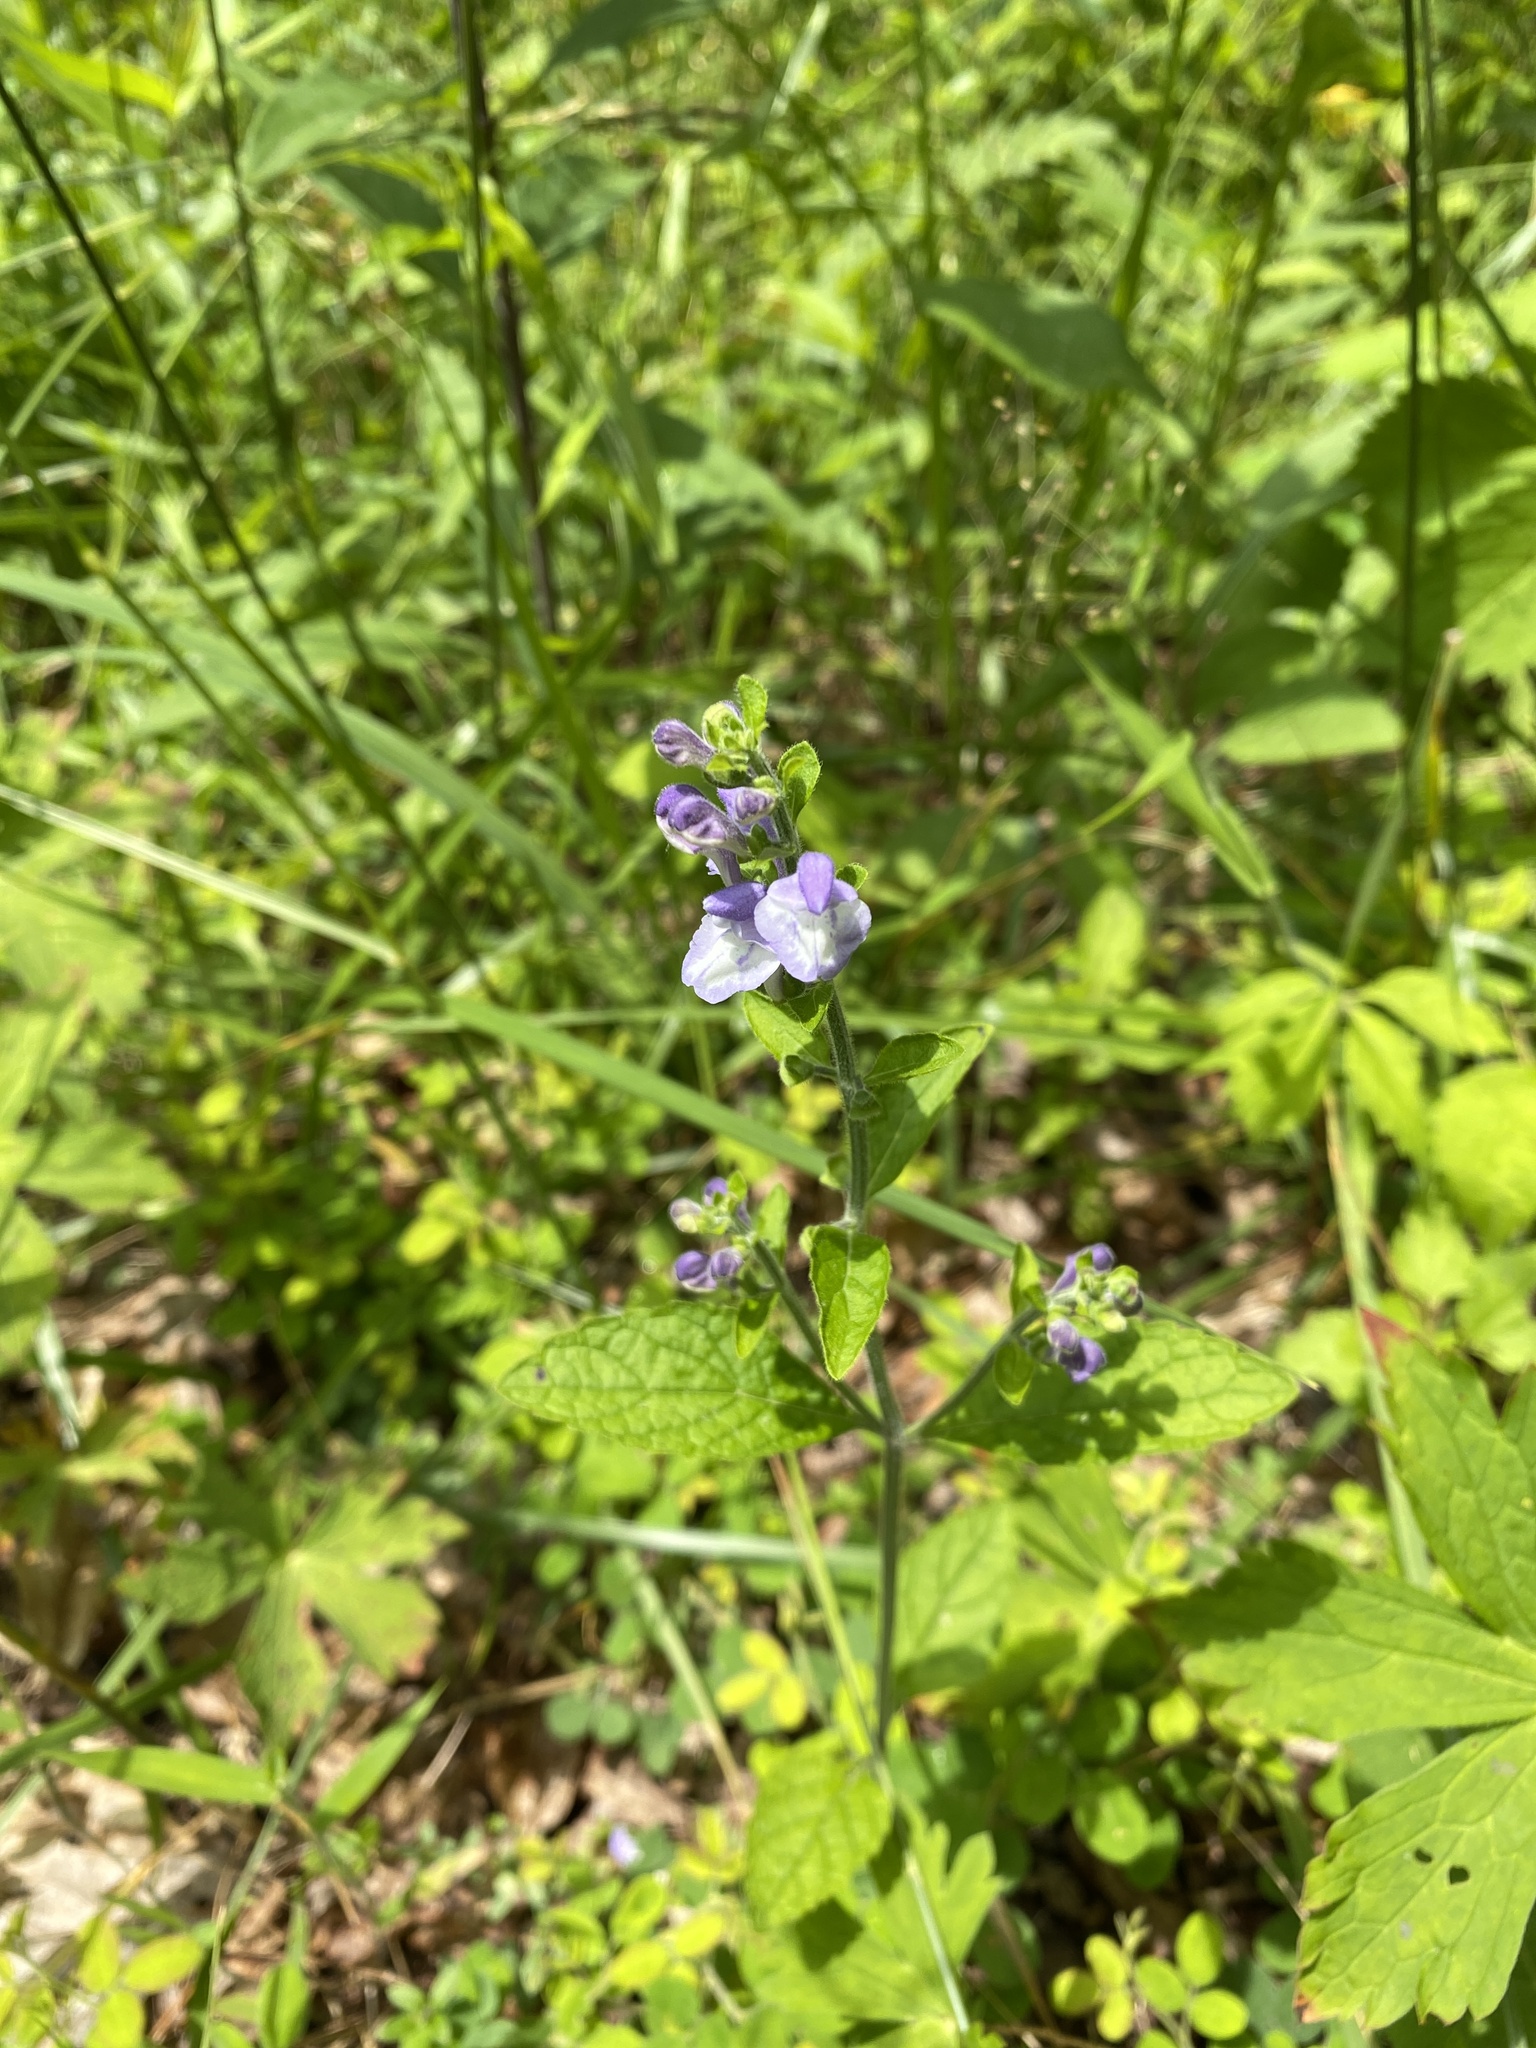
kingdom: Plantae
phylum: Tracheophyta
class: Magnoliopsida
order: Lamiales
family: Lamiaceae
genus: Scutellaria
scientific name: Scutellaria elliptica
